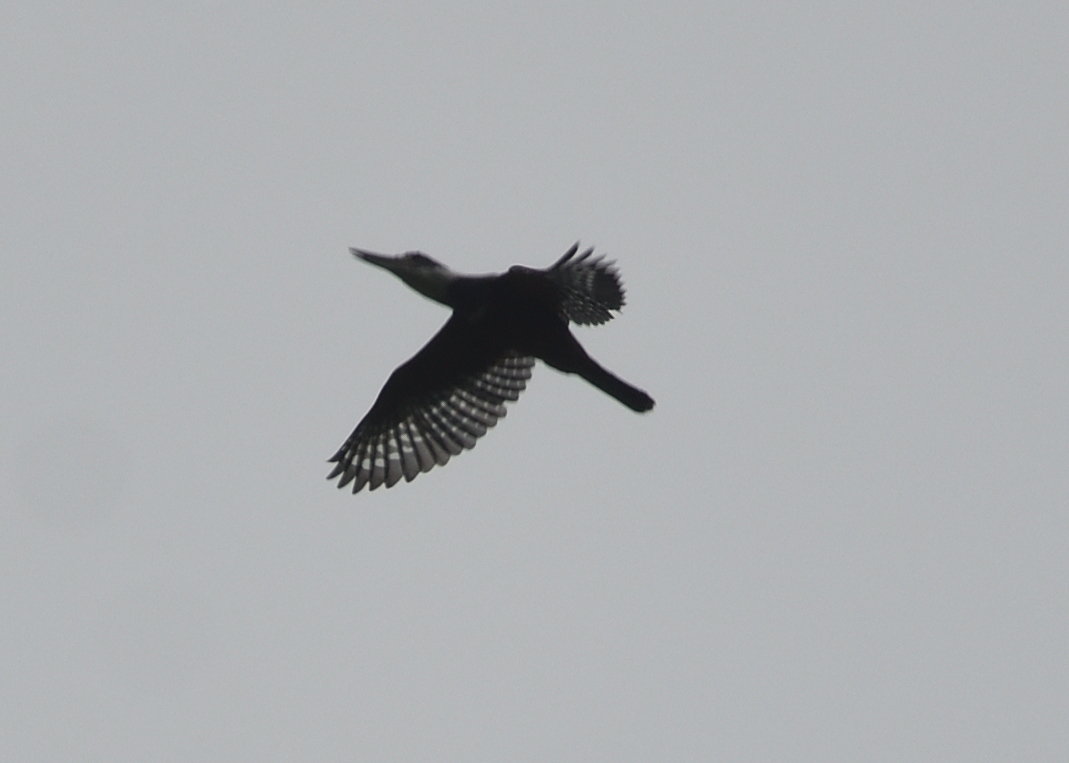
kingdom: Animalia
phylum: Chordata
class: Aves
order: Coraciiformes
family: Alcedinidae
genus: Megaceryle
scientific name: Megaceryle torquata
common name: Ringed kingfisher
